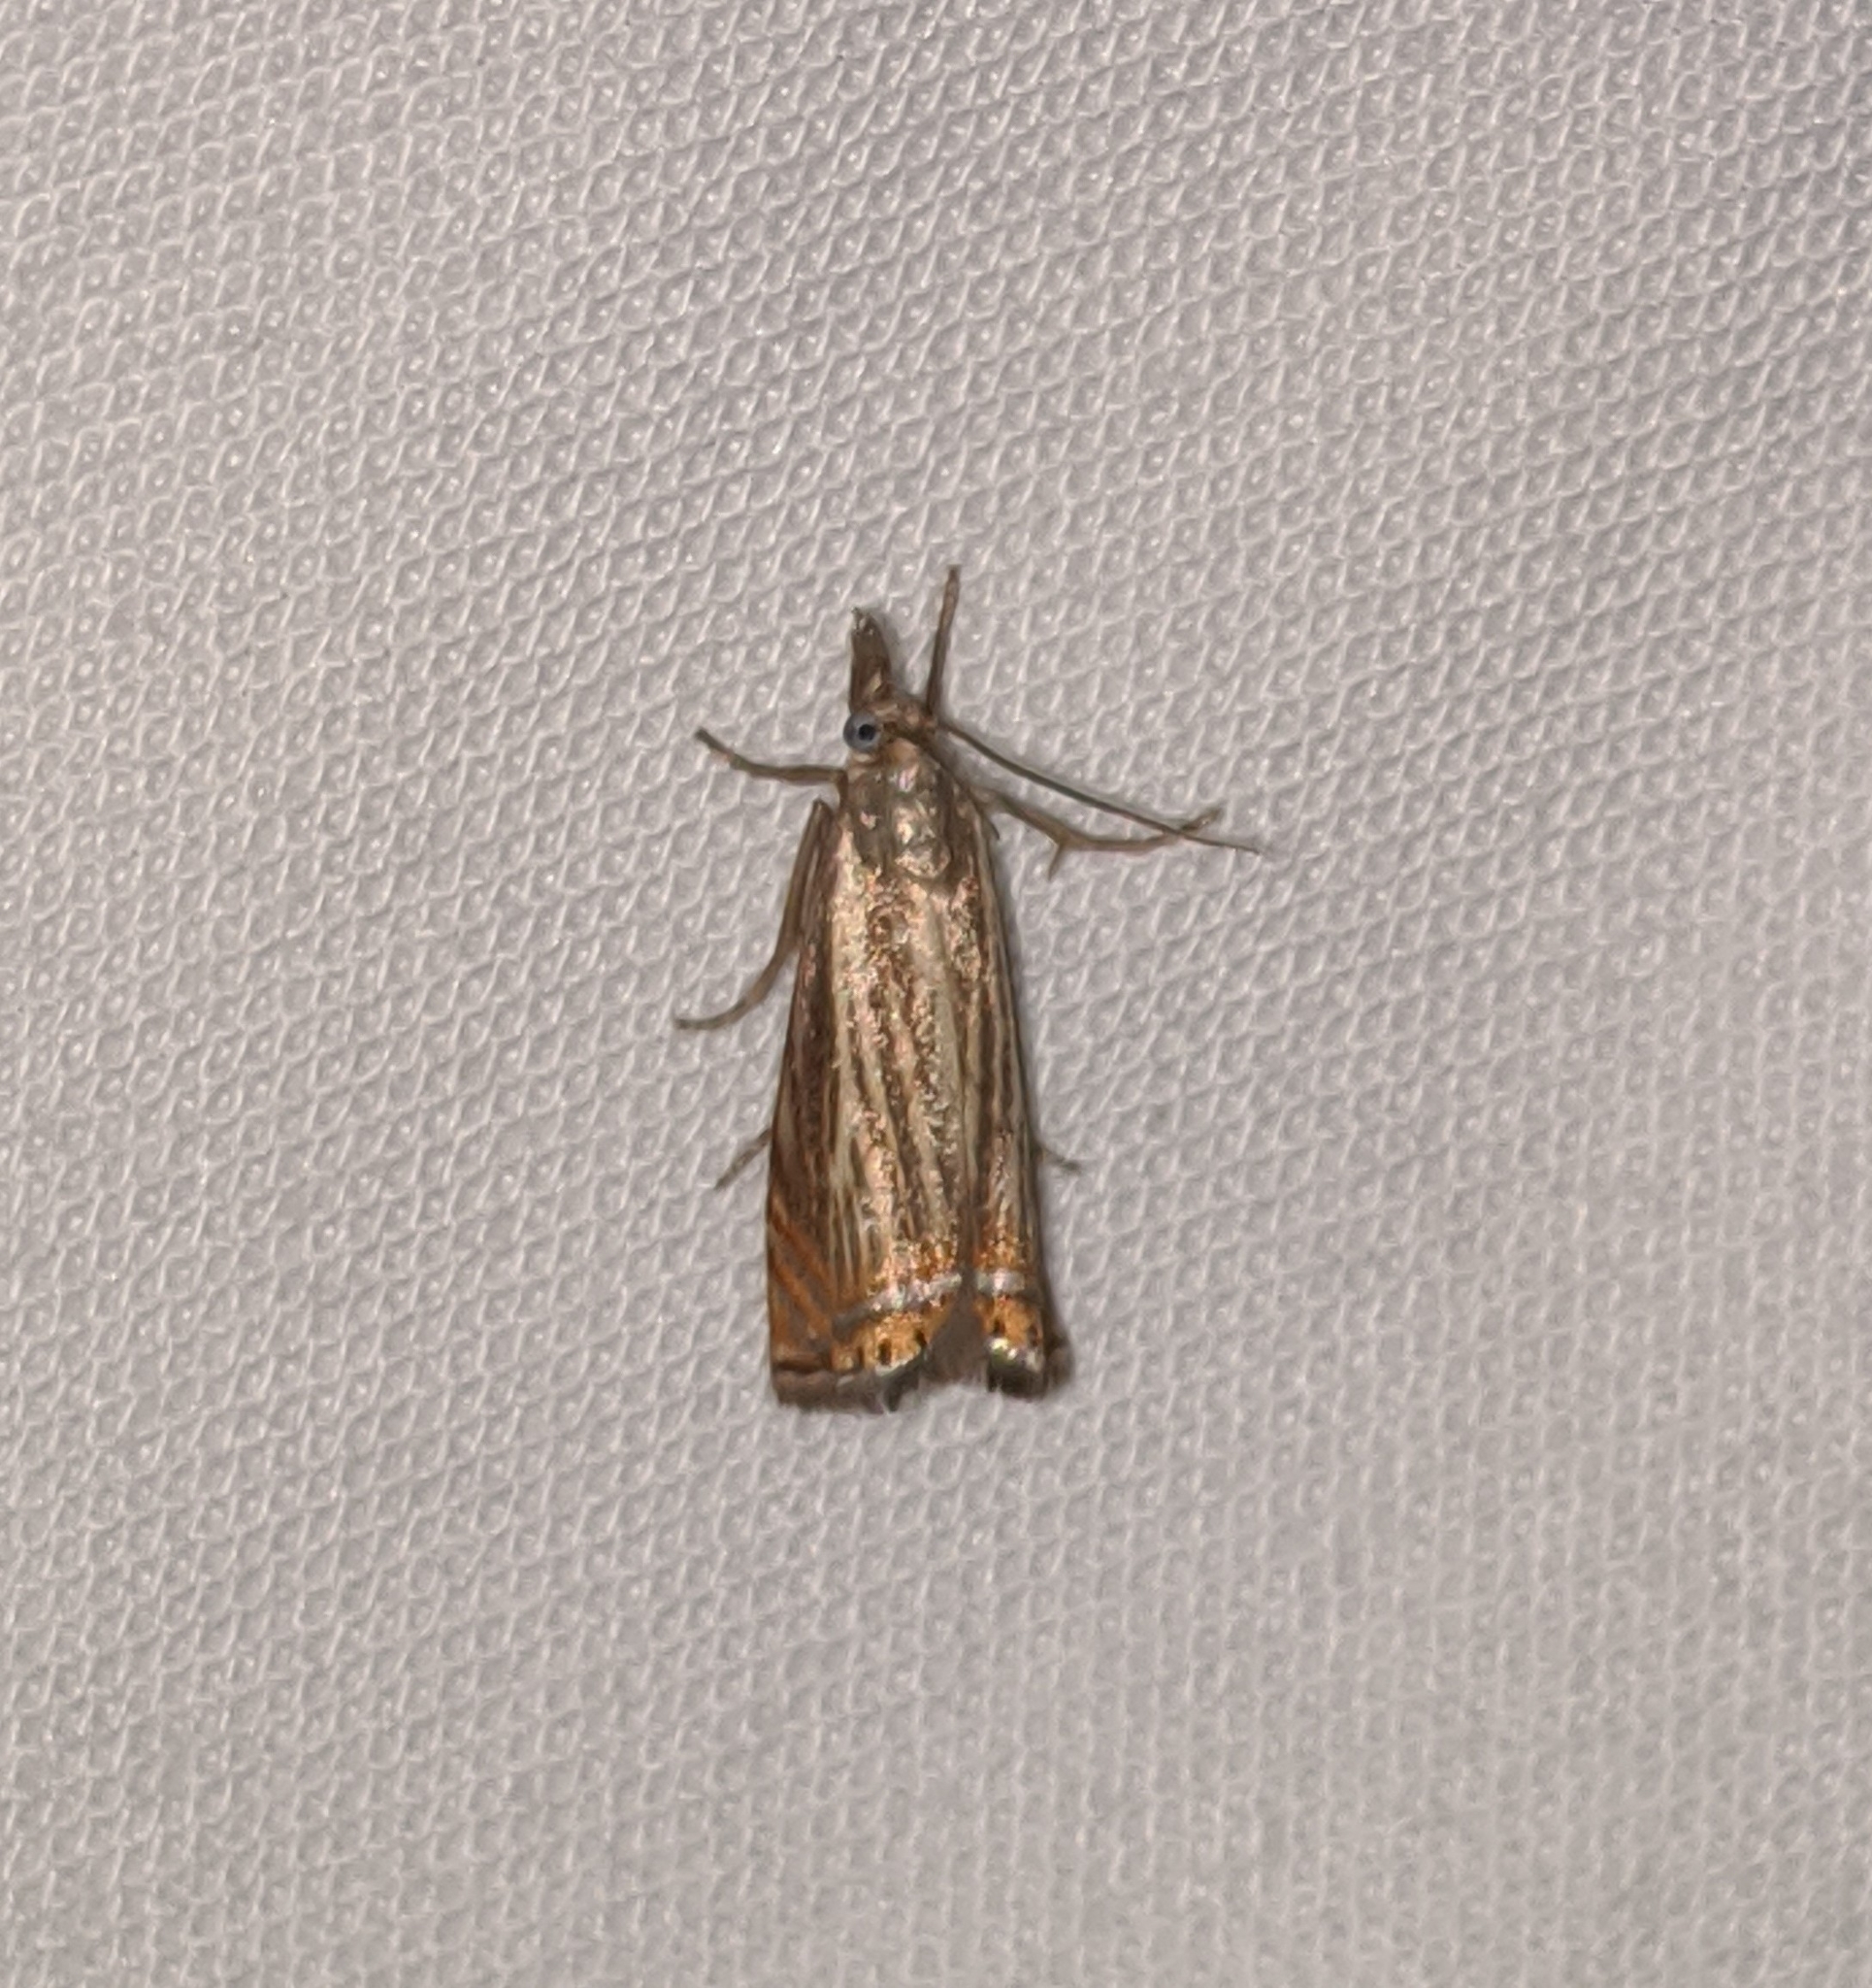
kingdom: Animalia
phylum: Arthropoda
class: Insecta
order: Lepidoptera
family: Crambidae
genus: Chrysoteuchia
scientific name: Chrysoteuchia topiarius
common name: Topiary grass-veneer
